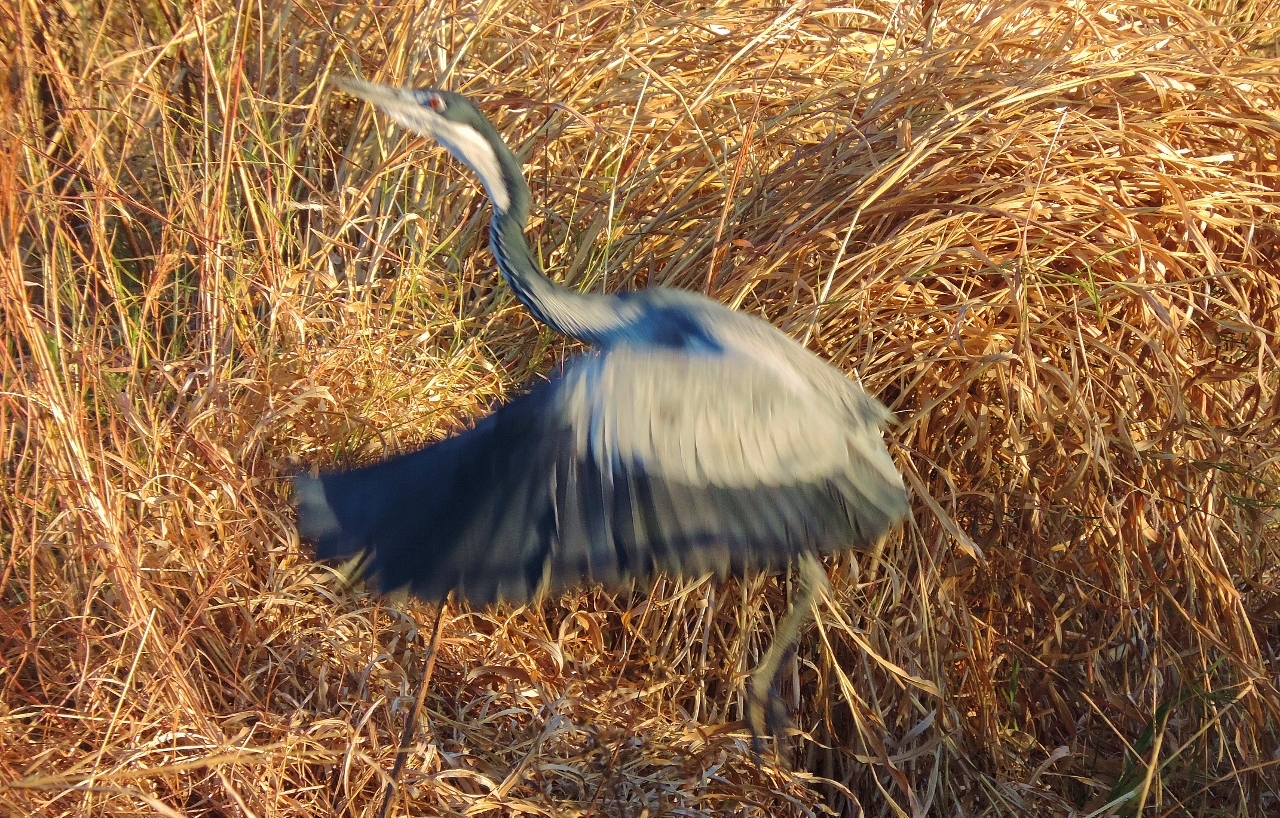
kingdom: Animalia
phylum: Chordata
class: Aves
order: Pelecaniformes
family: Ardeidae
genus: Ardea
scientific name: Ardea melanocephala
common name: Black-headed heron
